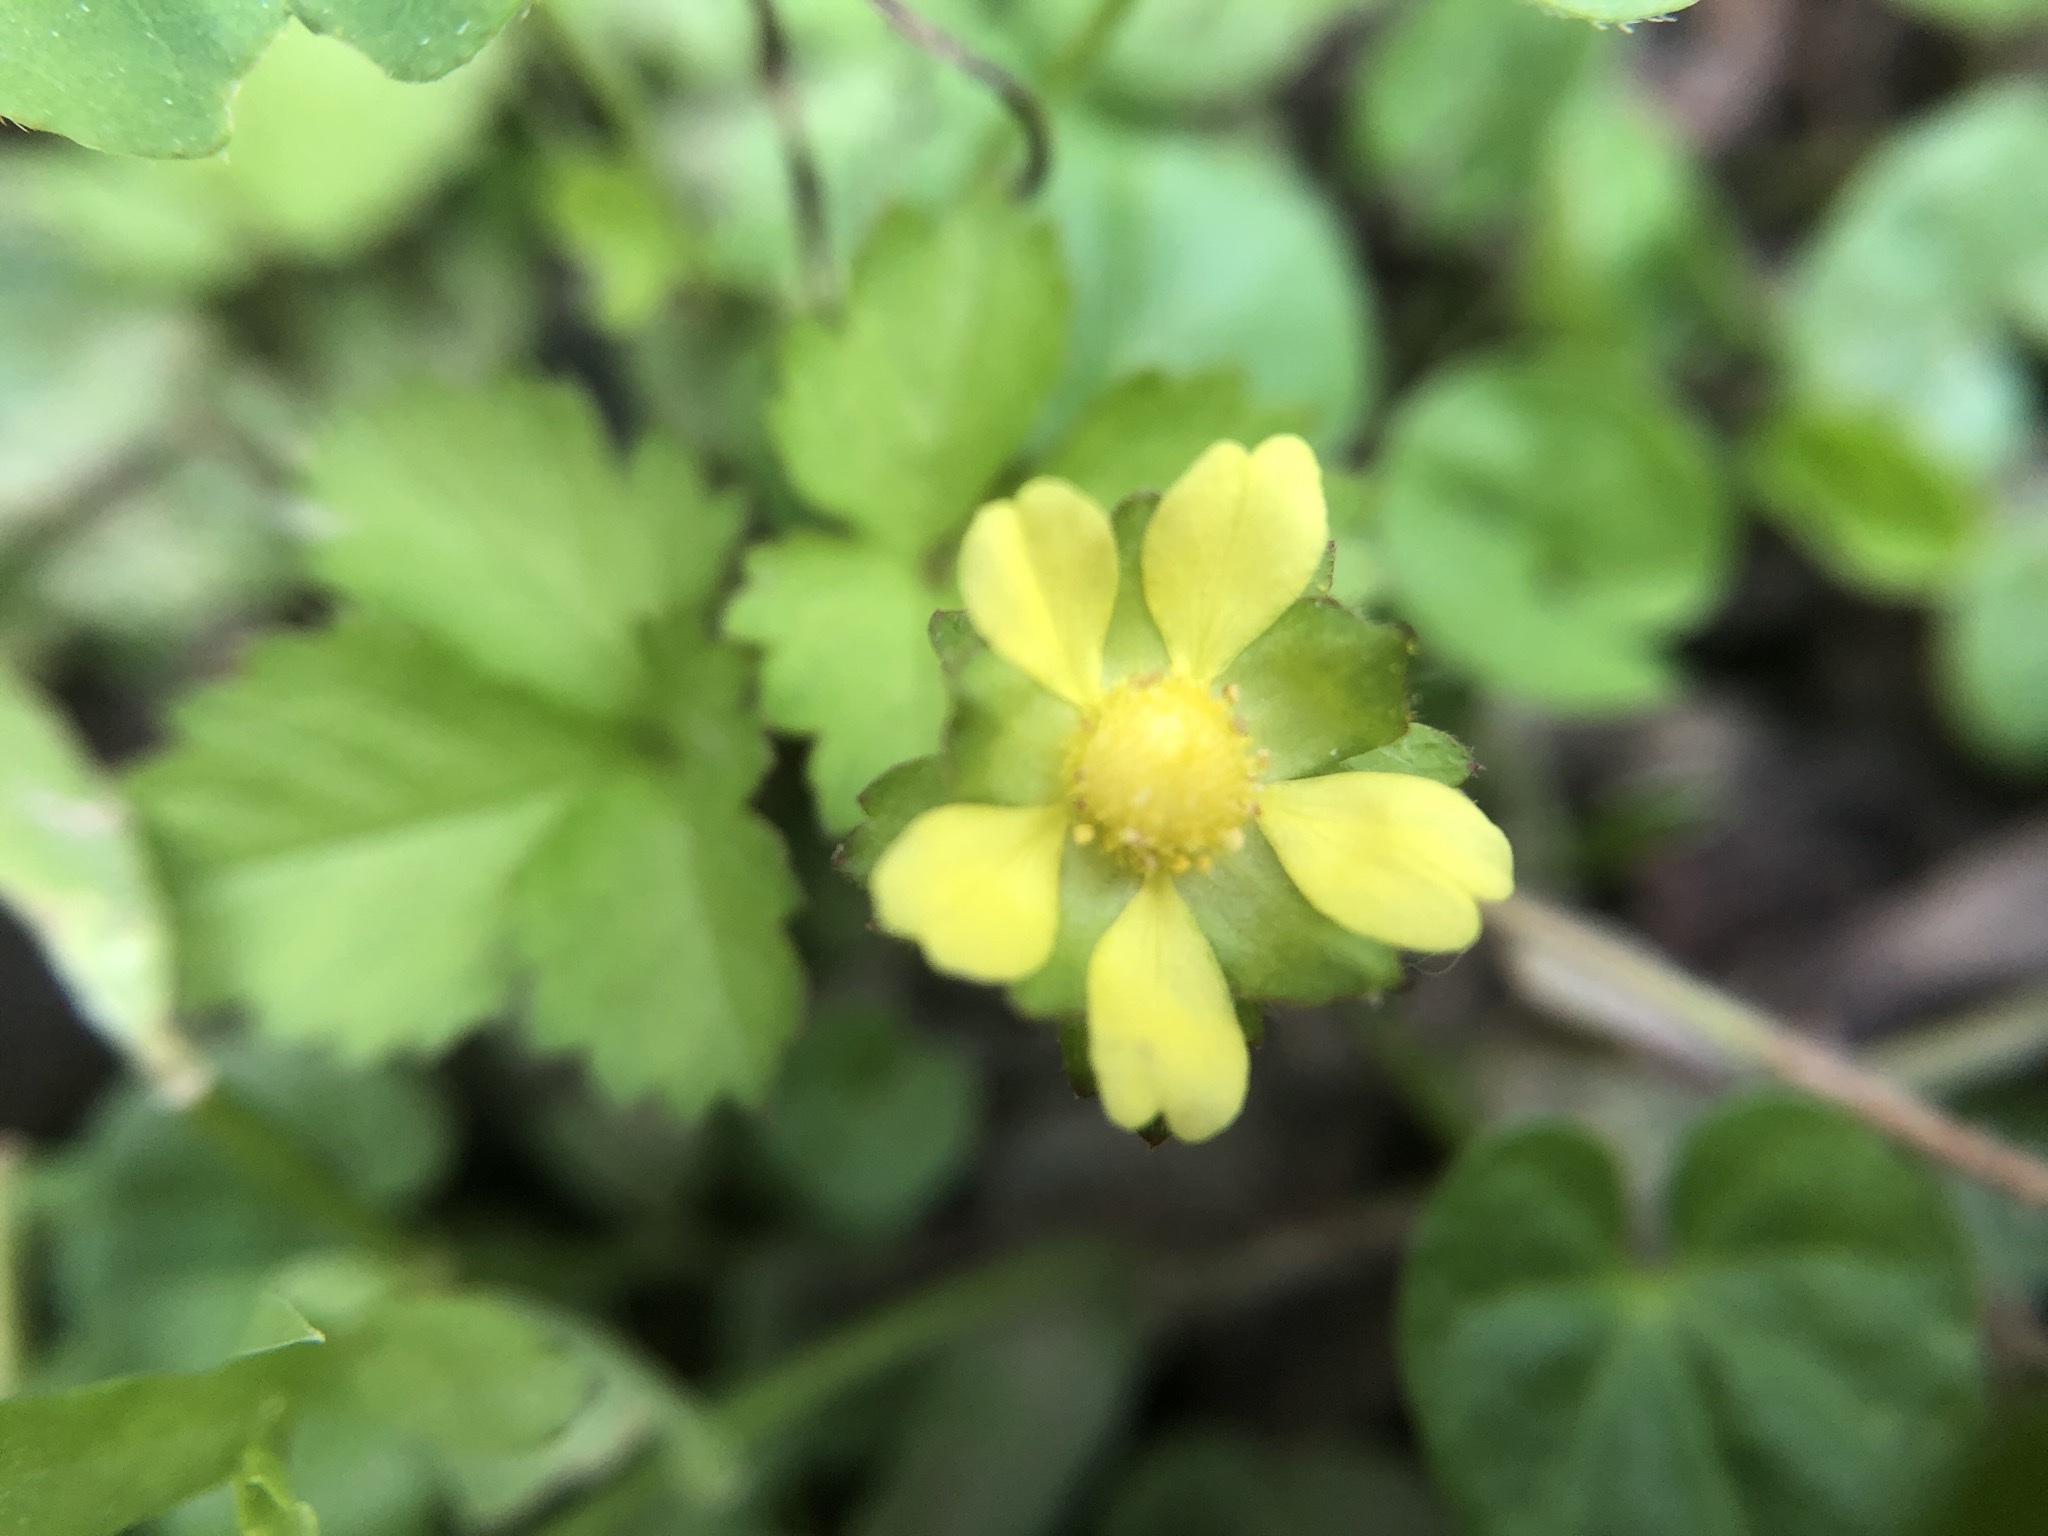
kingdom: Plantae
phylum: Tracheophyta
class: Magnoliopsida
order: Rosales
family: Rosaceae
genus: Potentilla
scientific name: Potentilla wallichiana
